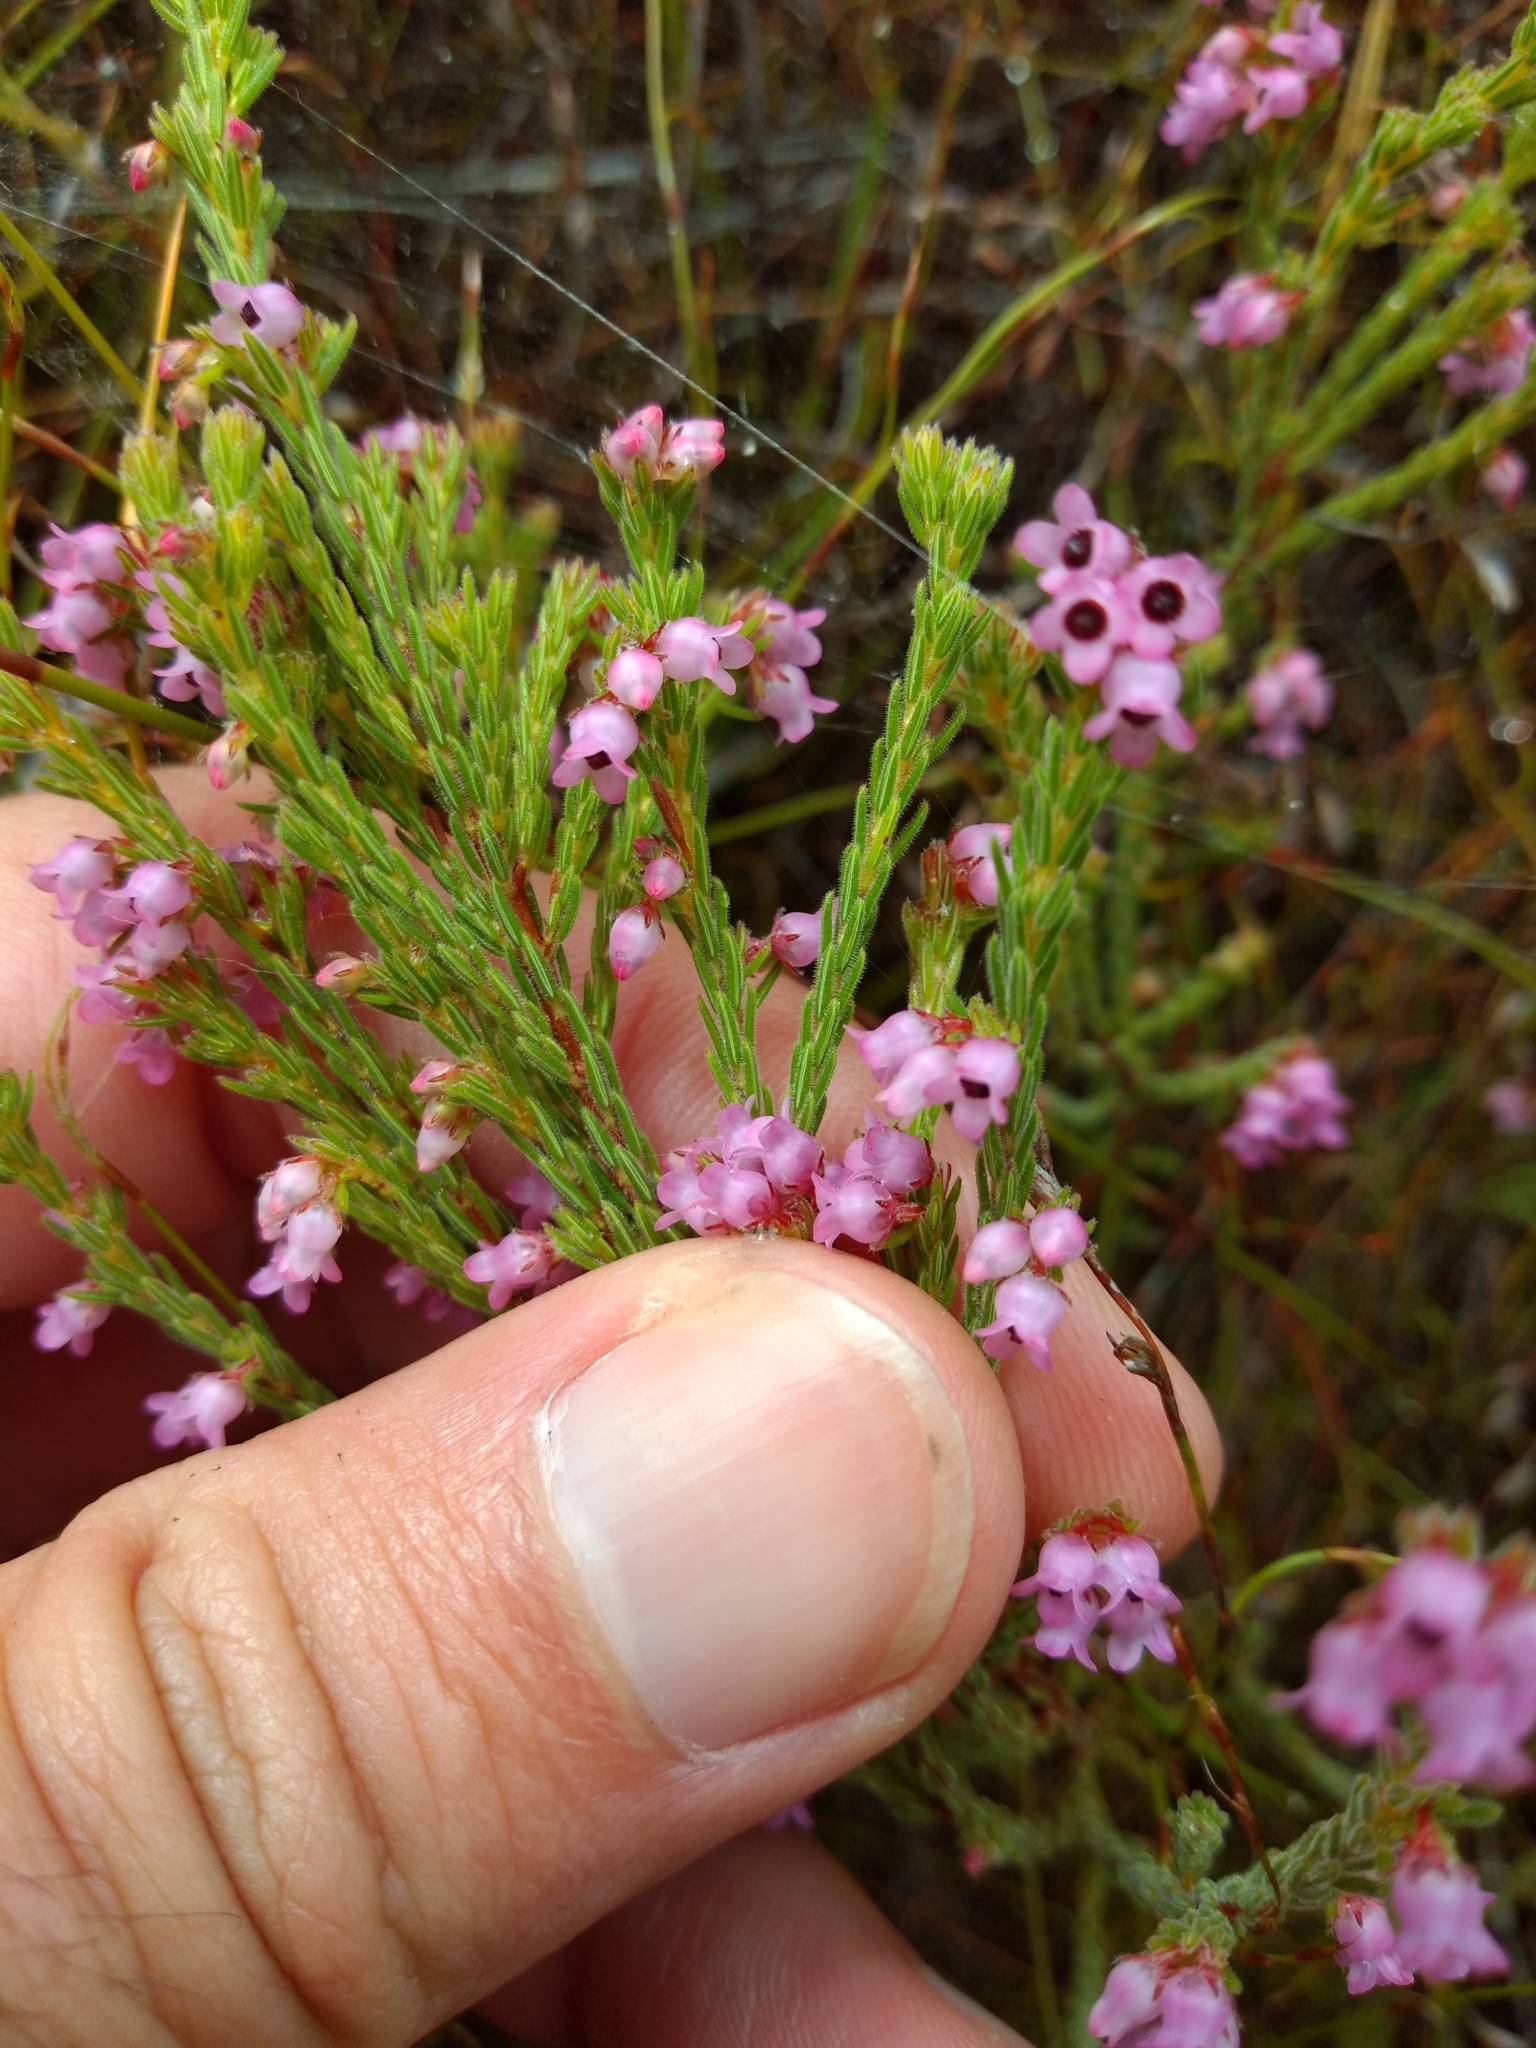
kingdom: Plantae
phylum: Tracheophyta
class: Magnoliopsida
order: Ericales
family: Ericaceae
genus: Erica
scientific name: Erica chionophila
